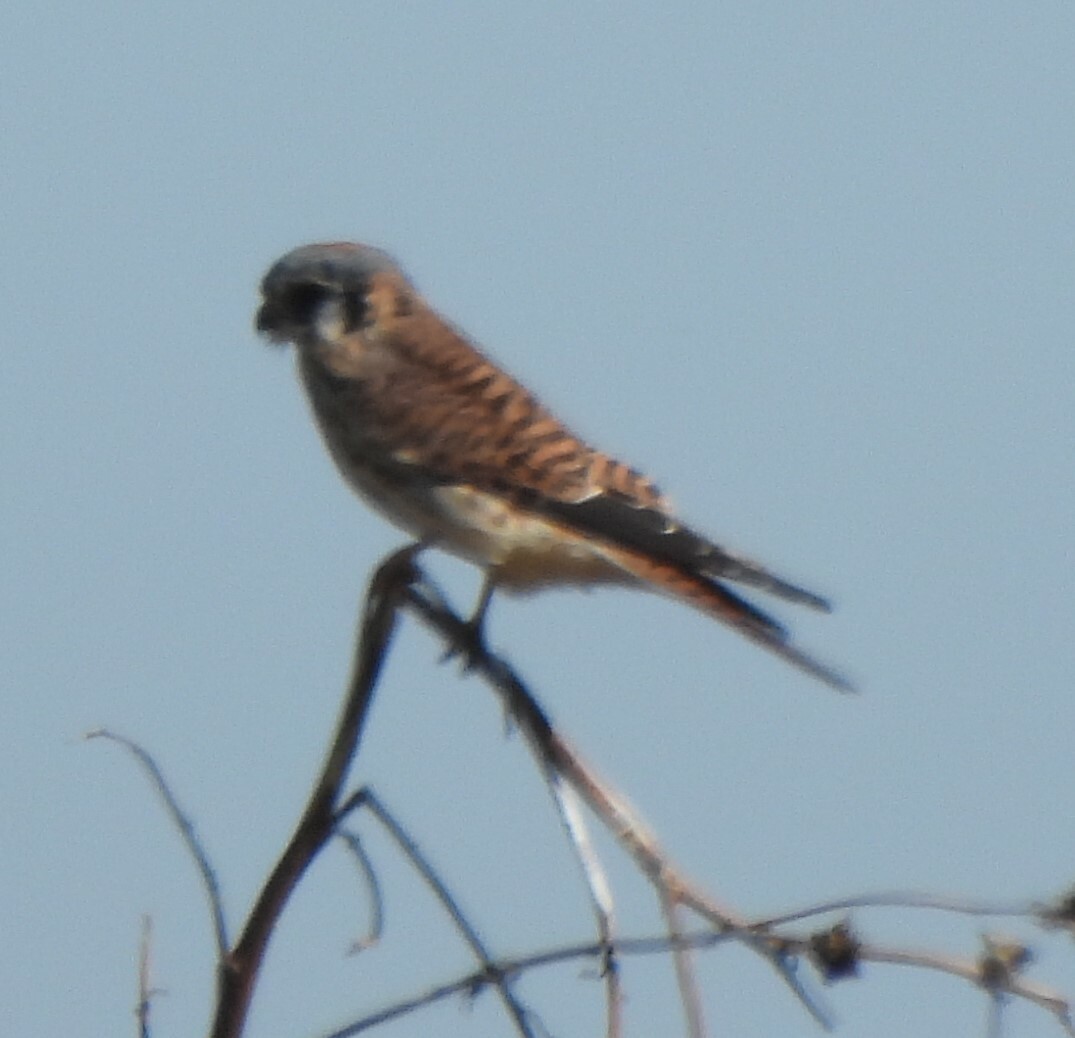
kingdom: Animalia
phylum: Chordata
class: Aves
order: Falconiformes
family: Falconidae
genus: Falco
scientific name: Falco sparverius
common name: American kestrel
